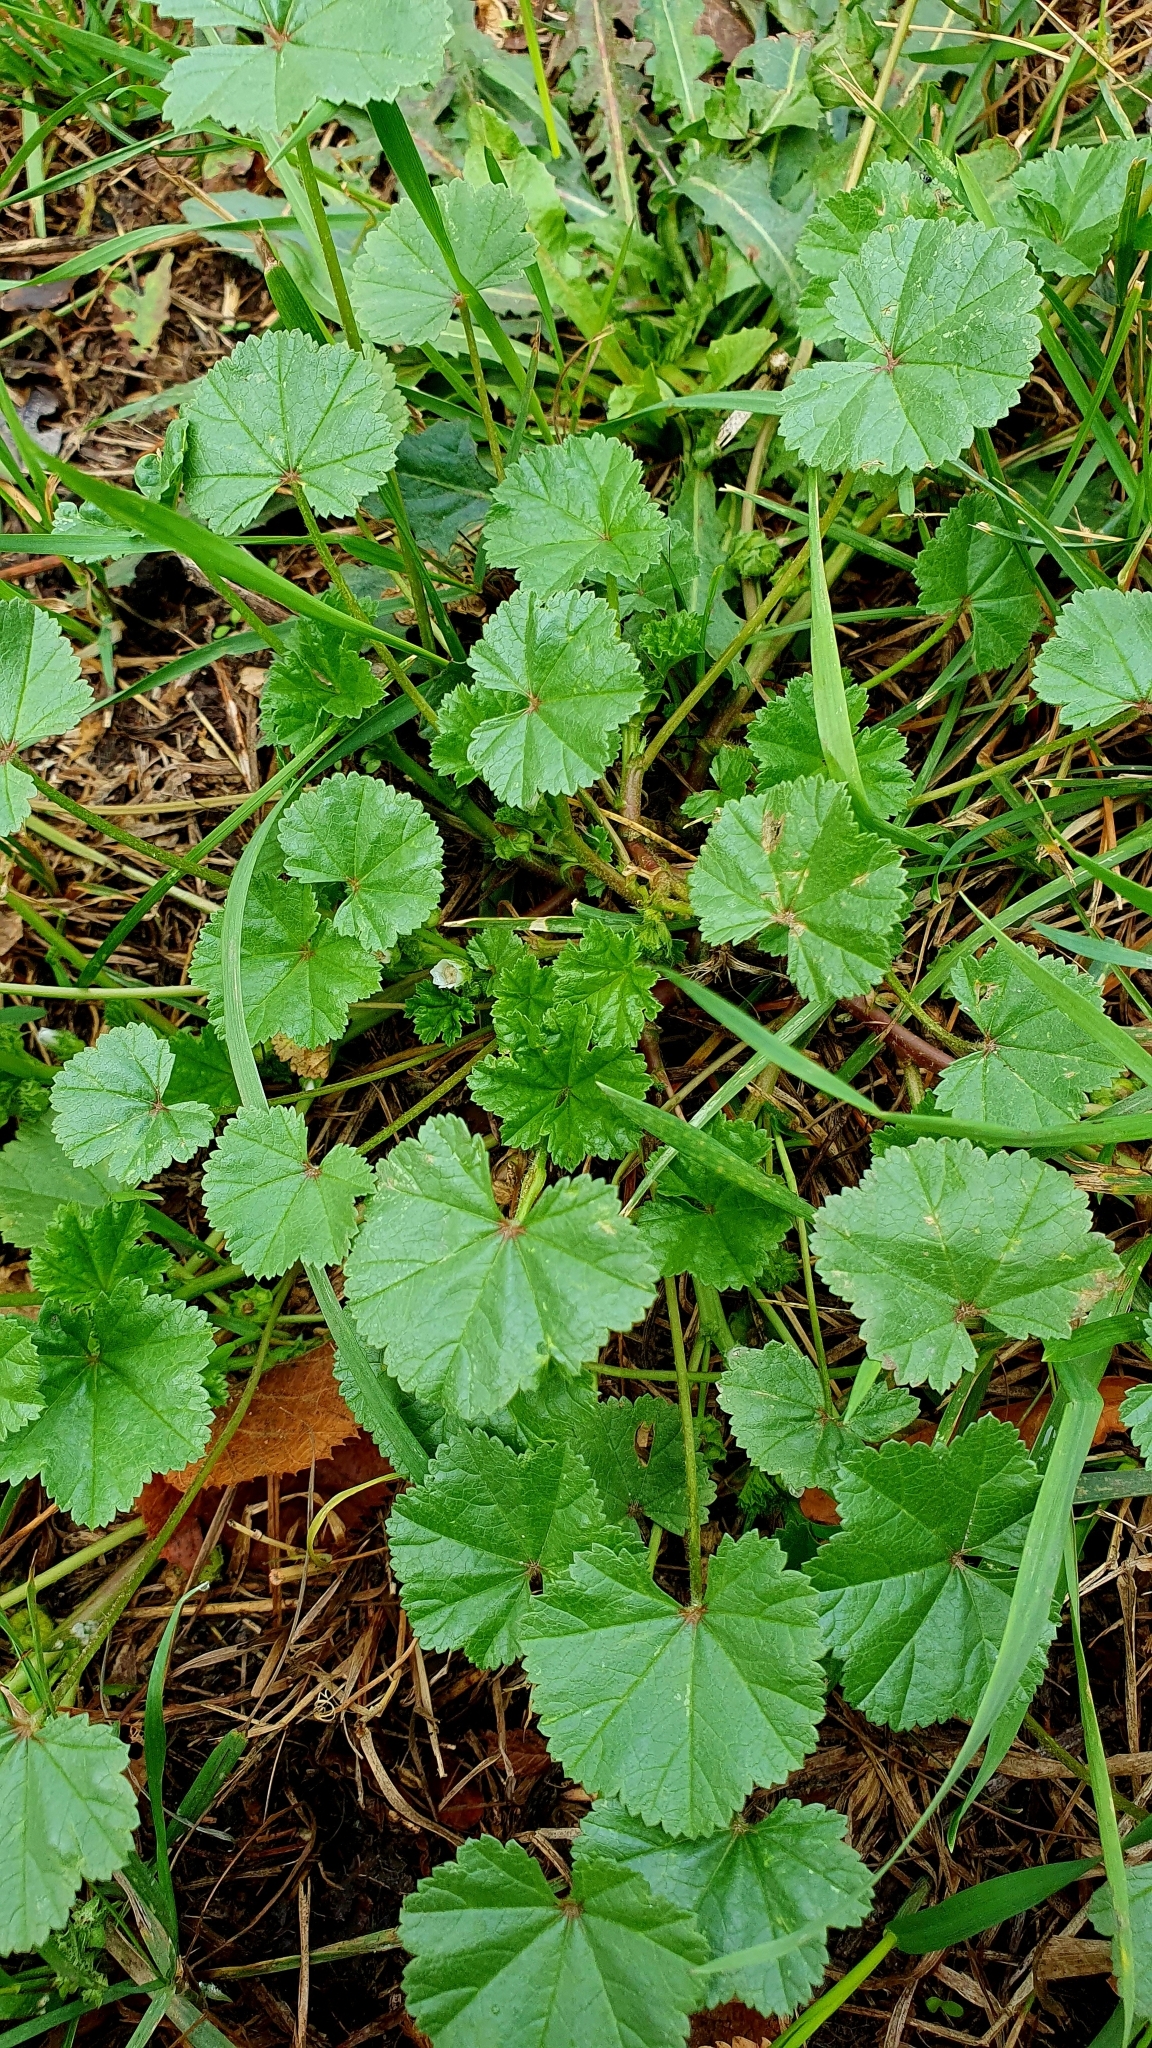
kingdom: Plantae
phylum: Tracheophyta
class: Magnoliopsida
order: Malvales
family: Malvaceae
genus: Malva
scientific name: Malva pusilla
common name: Small mallow
